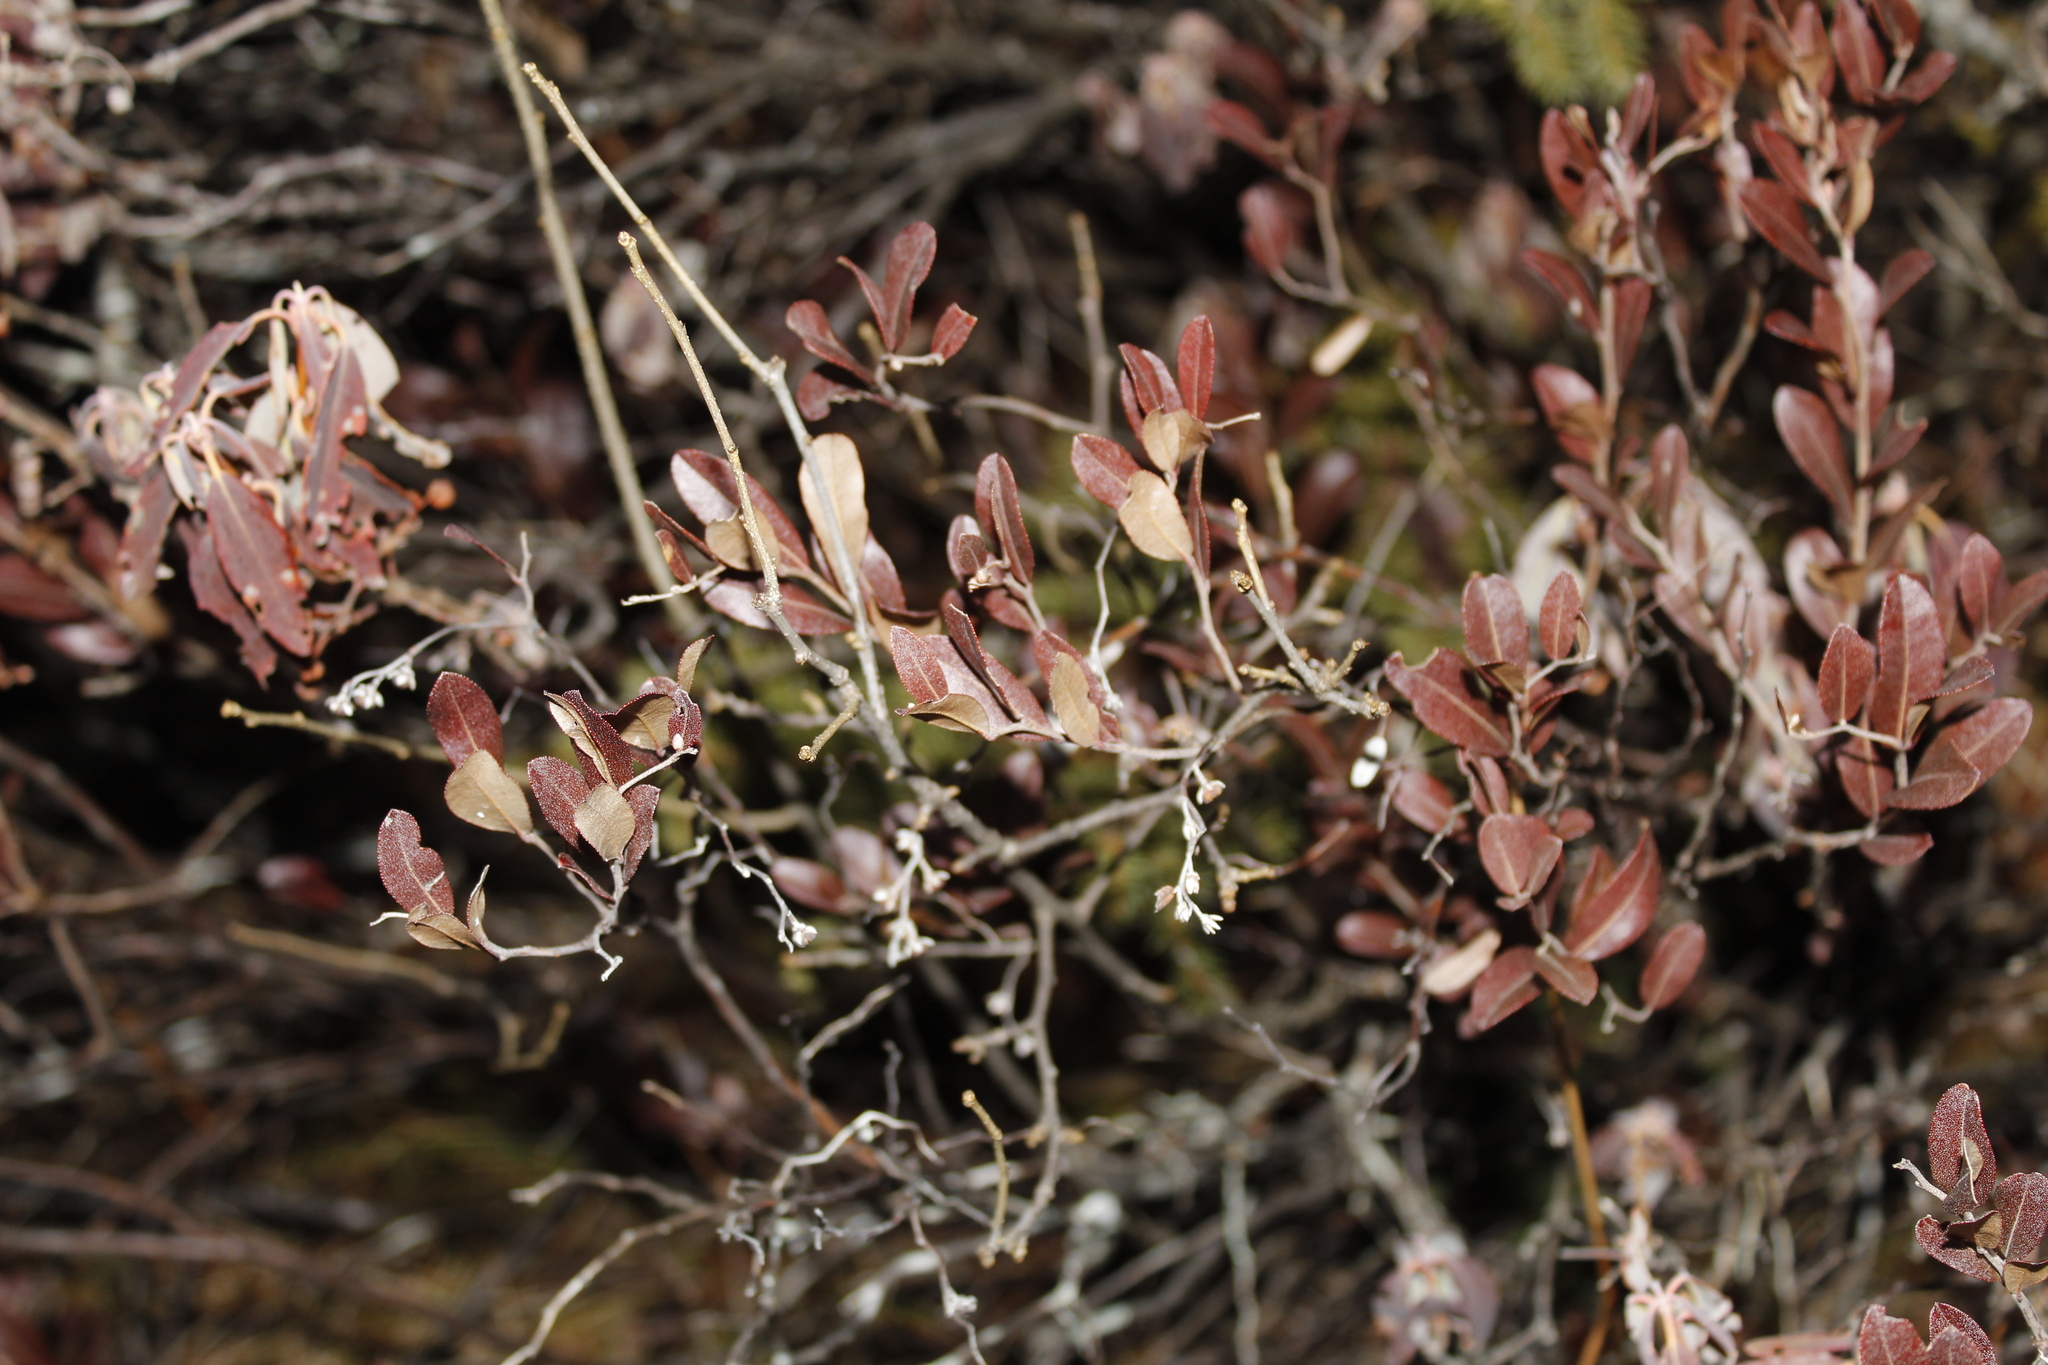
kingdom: Plantae
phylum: Tracheophyta
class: Magnoliopsida
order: Ericales
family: Ericaceae
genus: Chamaedaphne
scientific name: Chamaedaphne calyculata
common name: Leatherleaf
